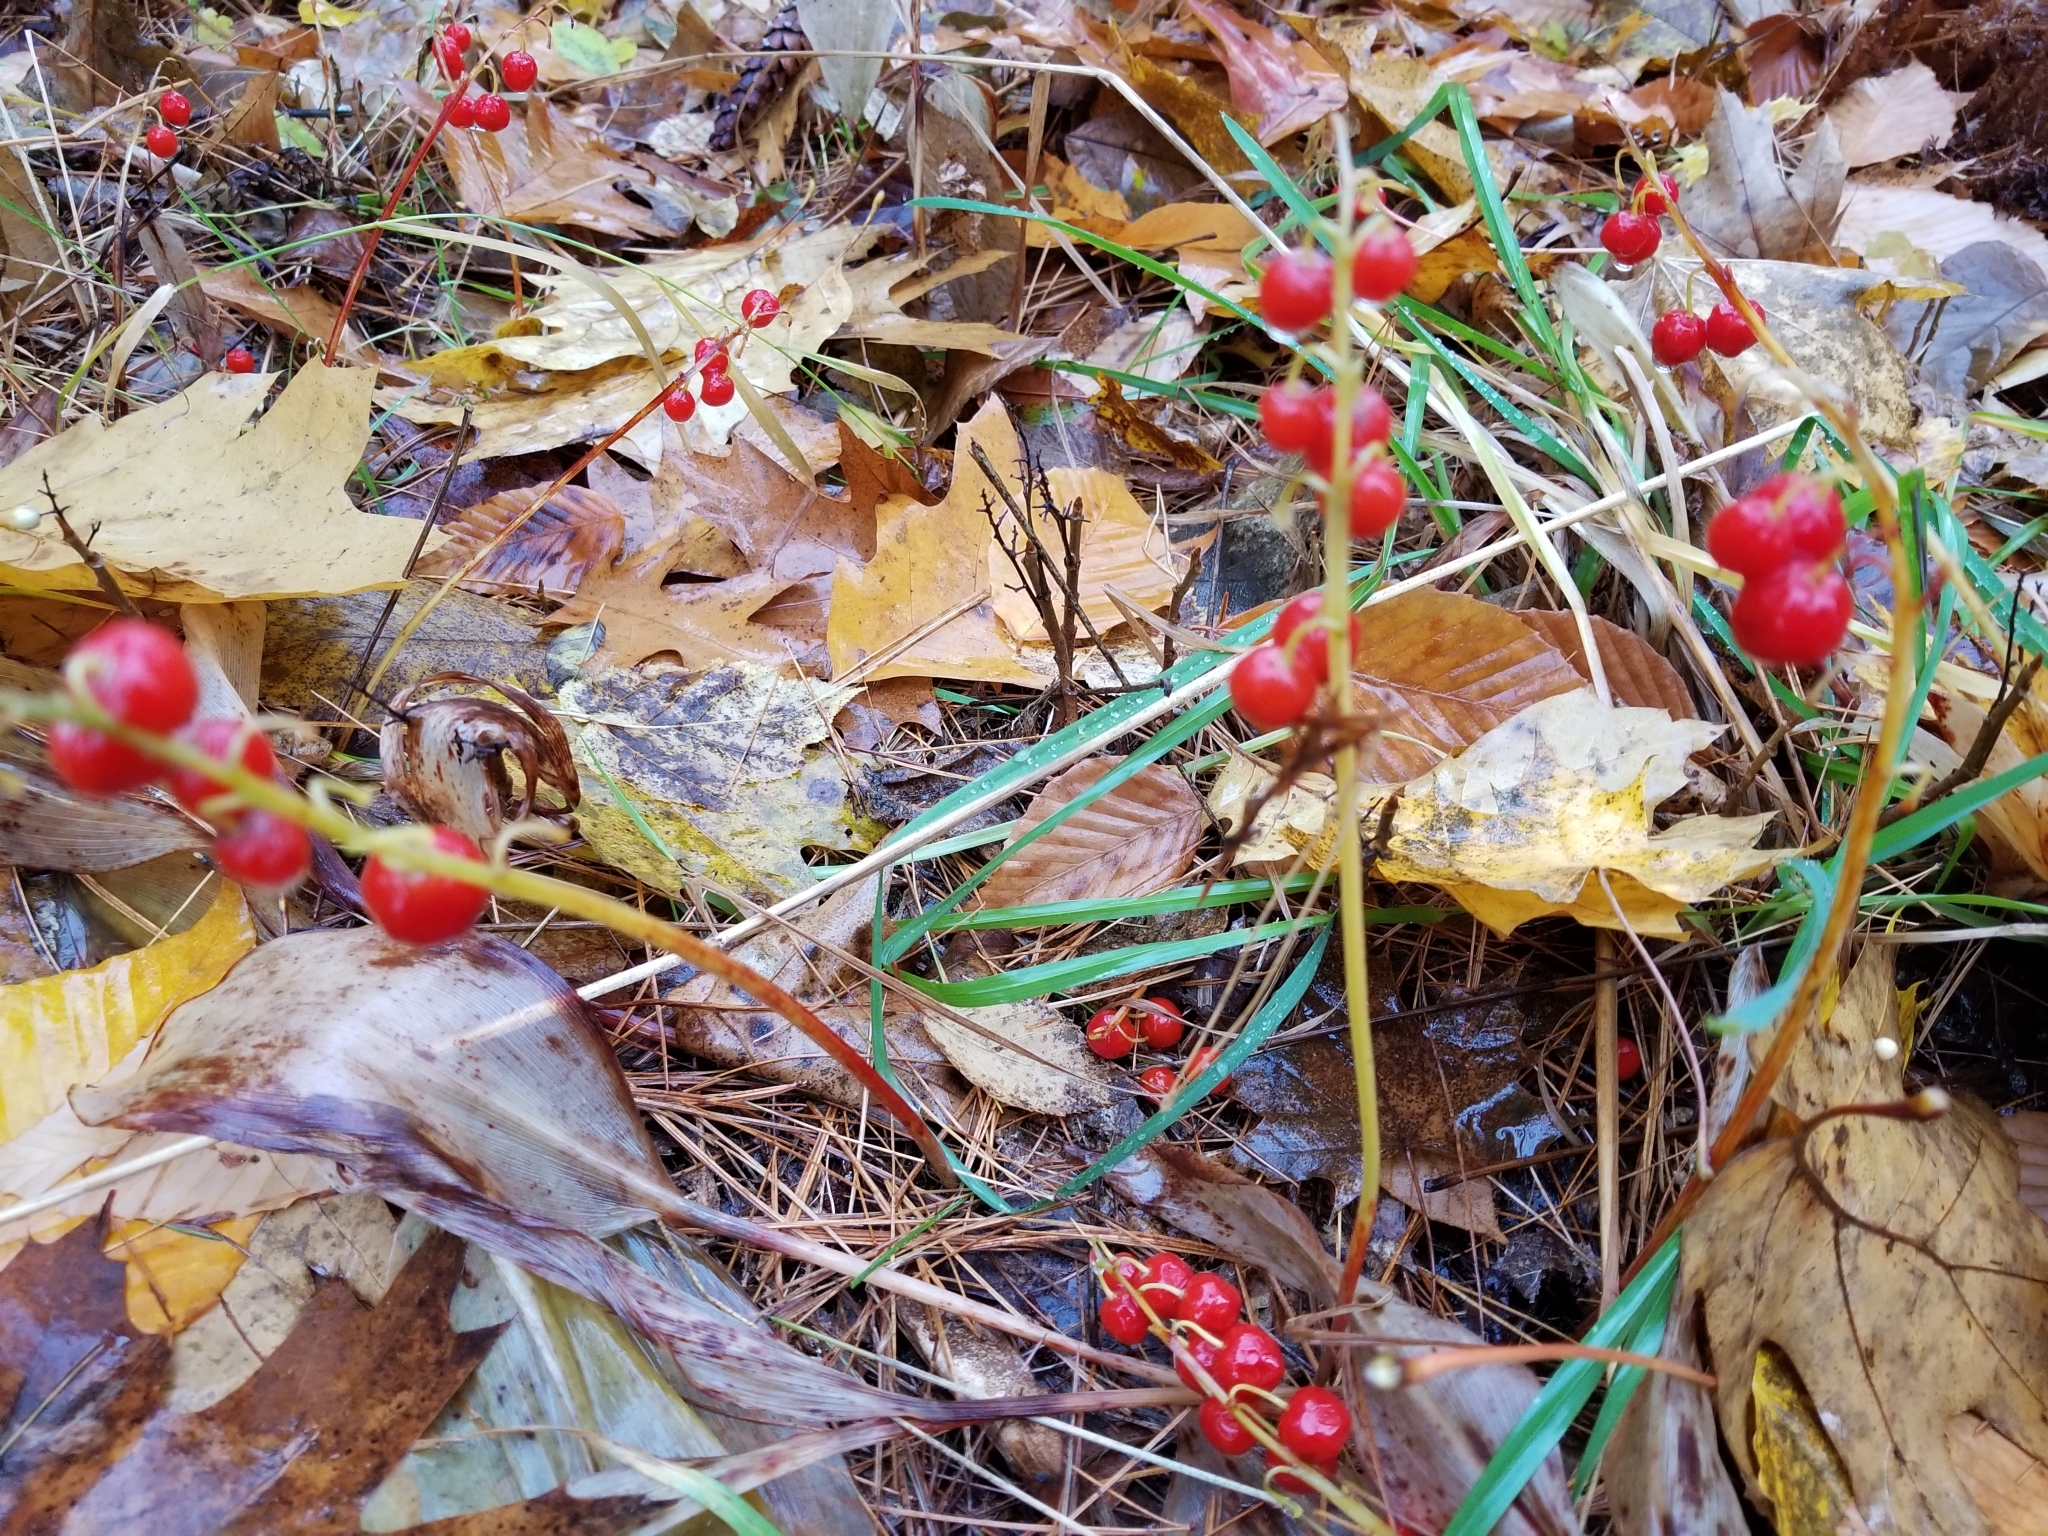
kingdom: Plantae
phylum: Tracheophyta
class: Liliopsida
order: Asparagales
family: Asparagaceae
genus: Convallaria
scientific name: Convallaria majalis
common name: Lily-of-the-valley
